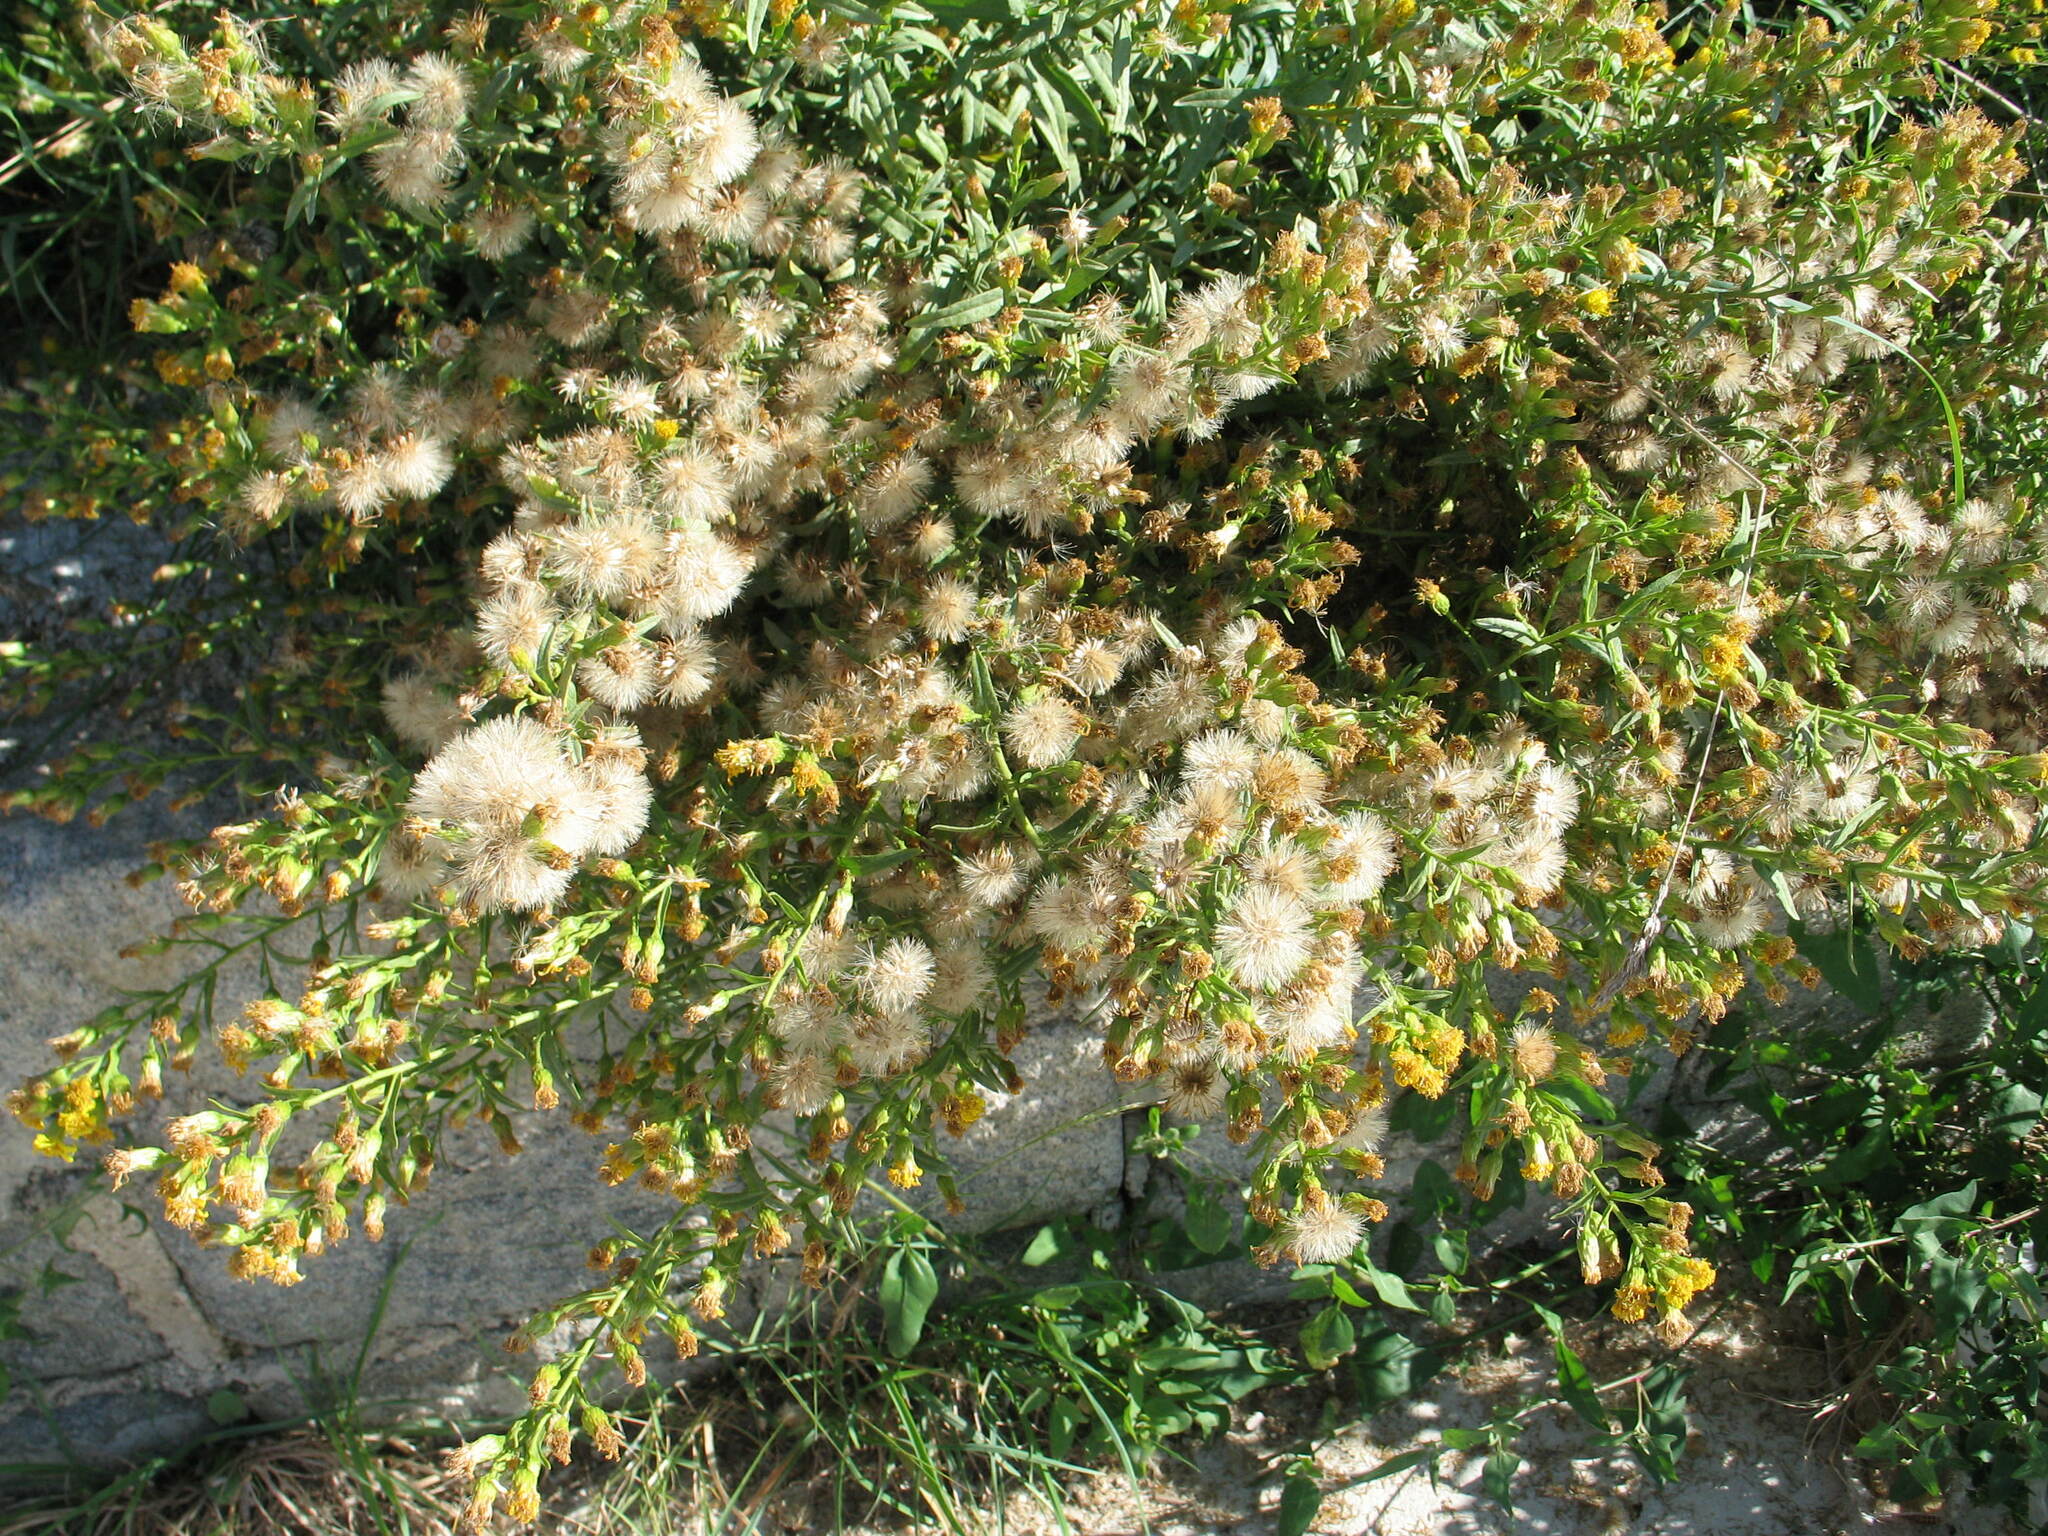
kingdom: Plantae
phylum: Tracheophyta
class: Magnoliopsida
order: Asterales
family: Asteraceae
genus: Dittrichia
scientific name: Dittrichia viscosa
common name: Woody fleabane
